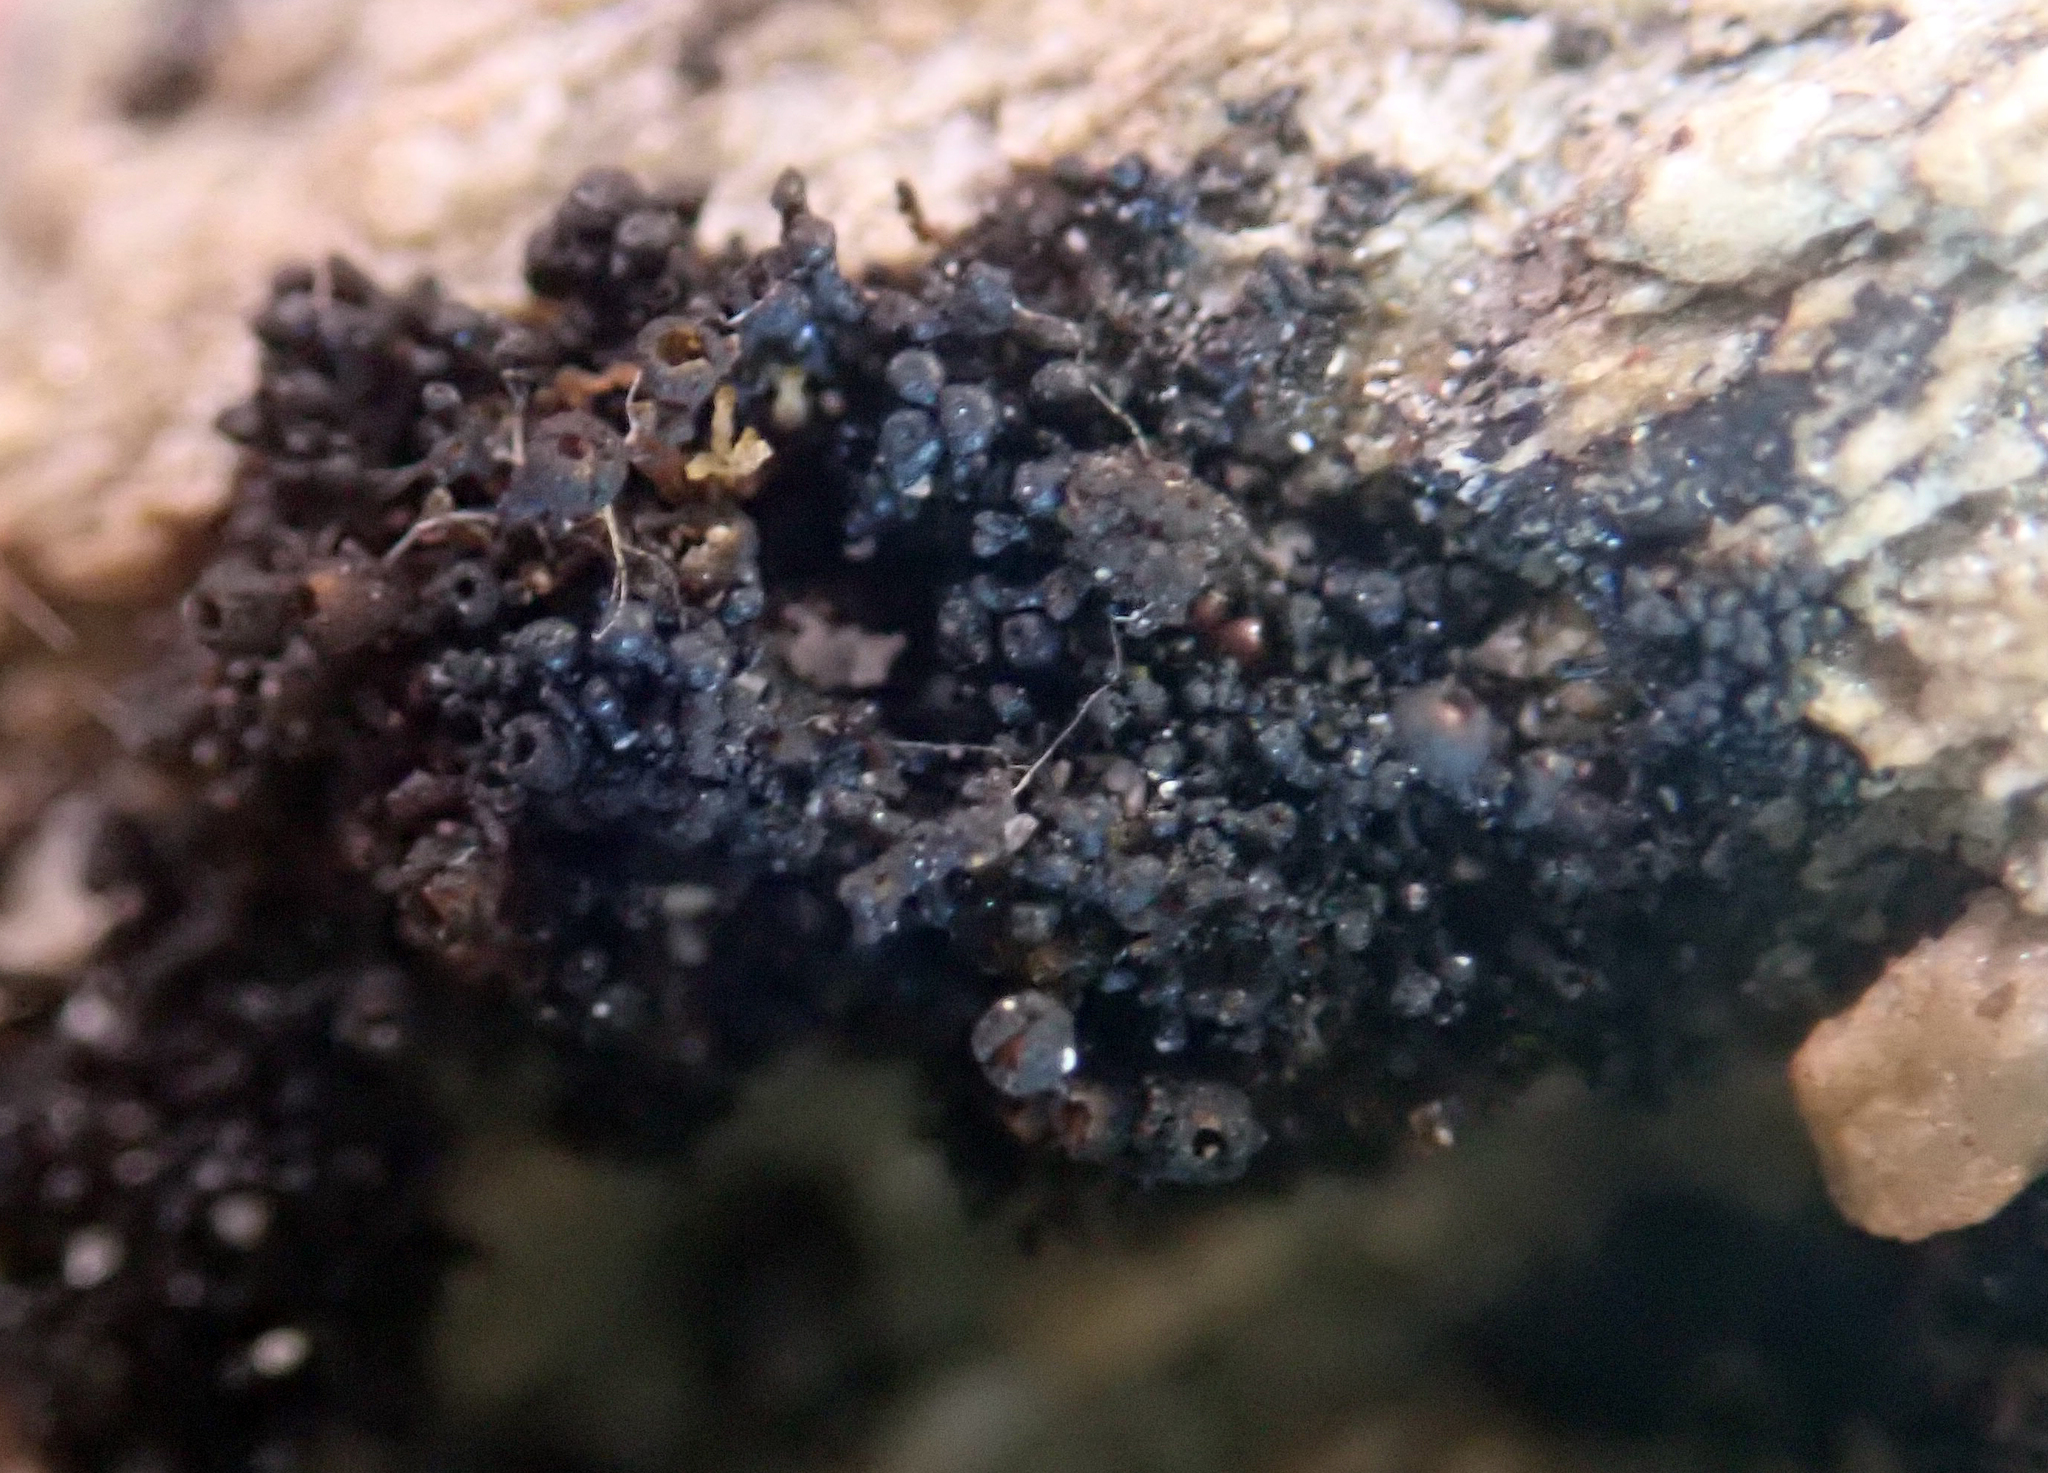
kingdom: Fungi
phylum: Ascomycota
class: Lichinomycetes
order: Lichinales
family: Lichinaceae
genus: Lichina
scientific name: Lichina intermedia
